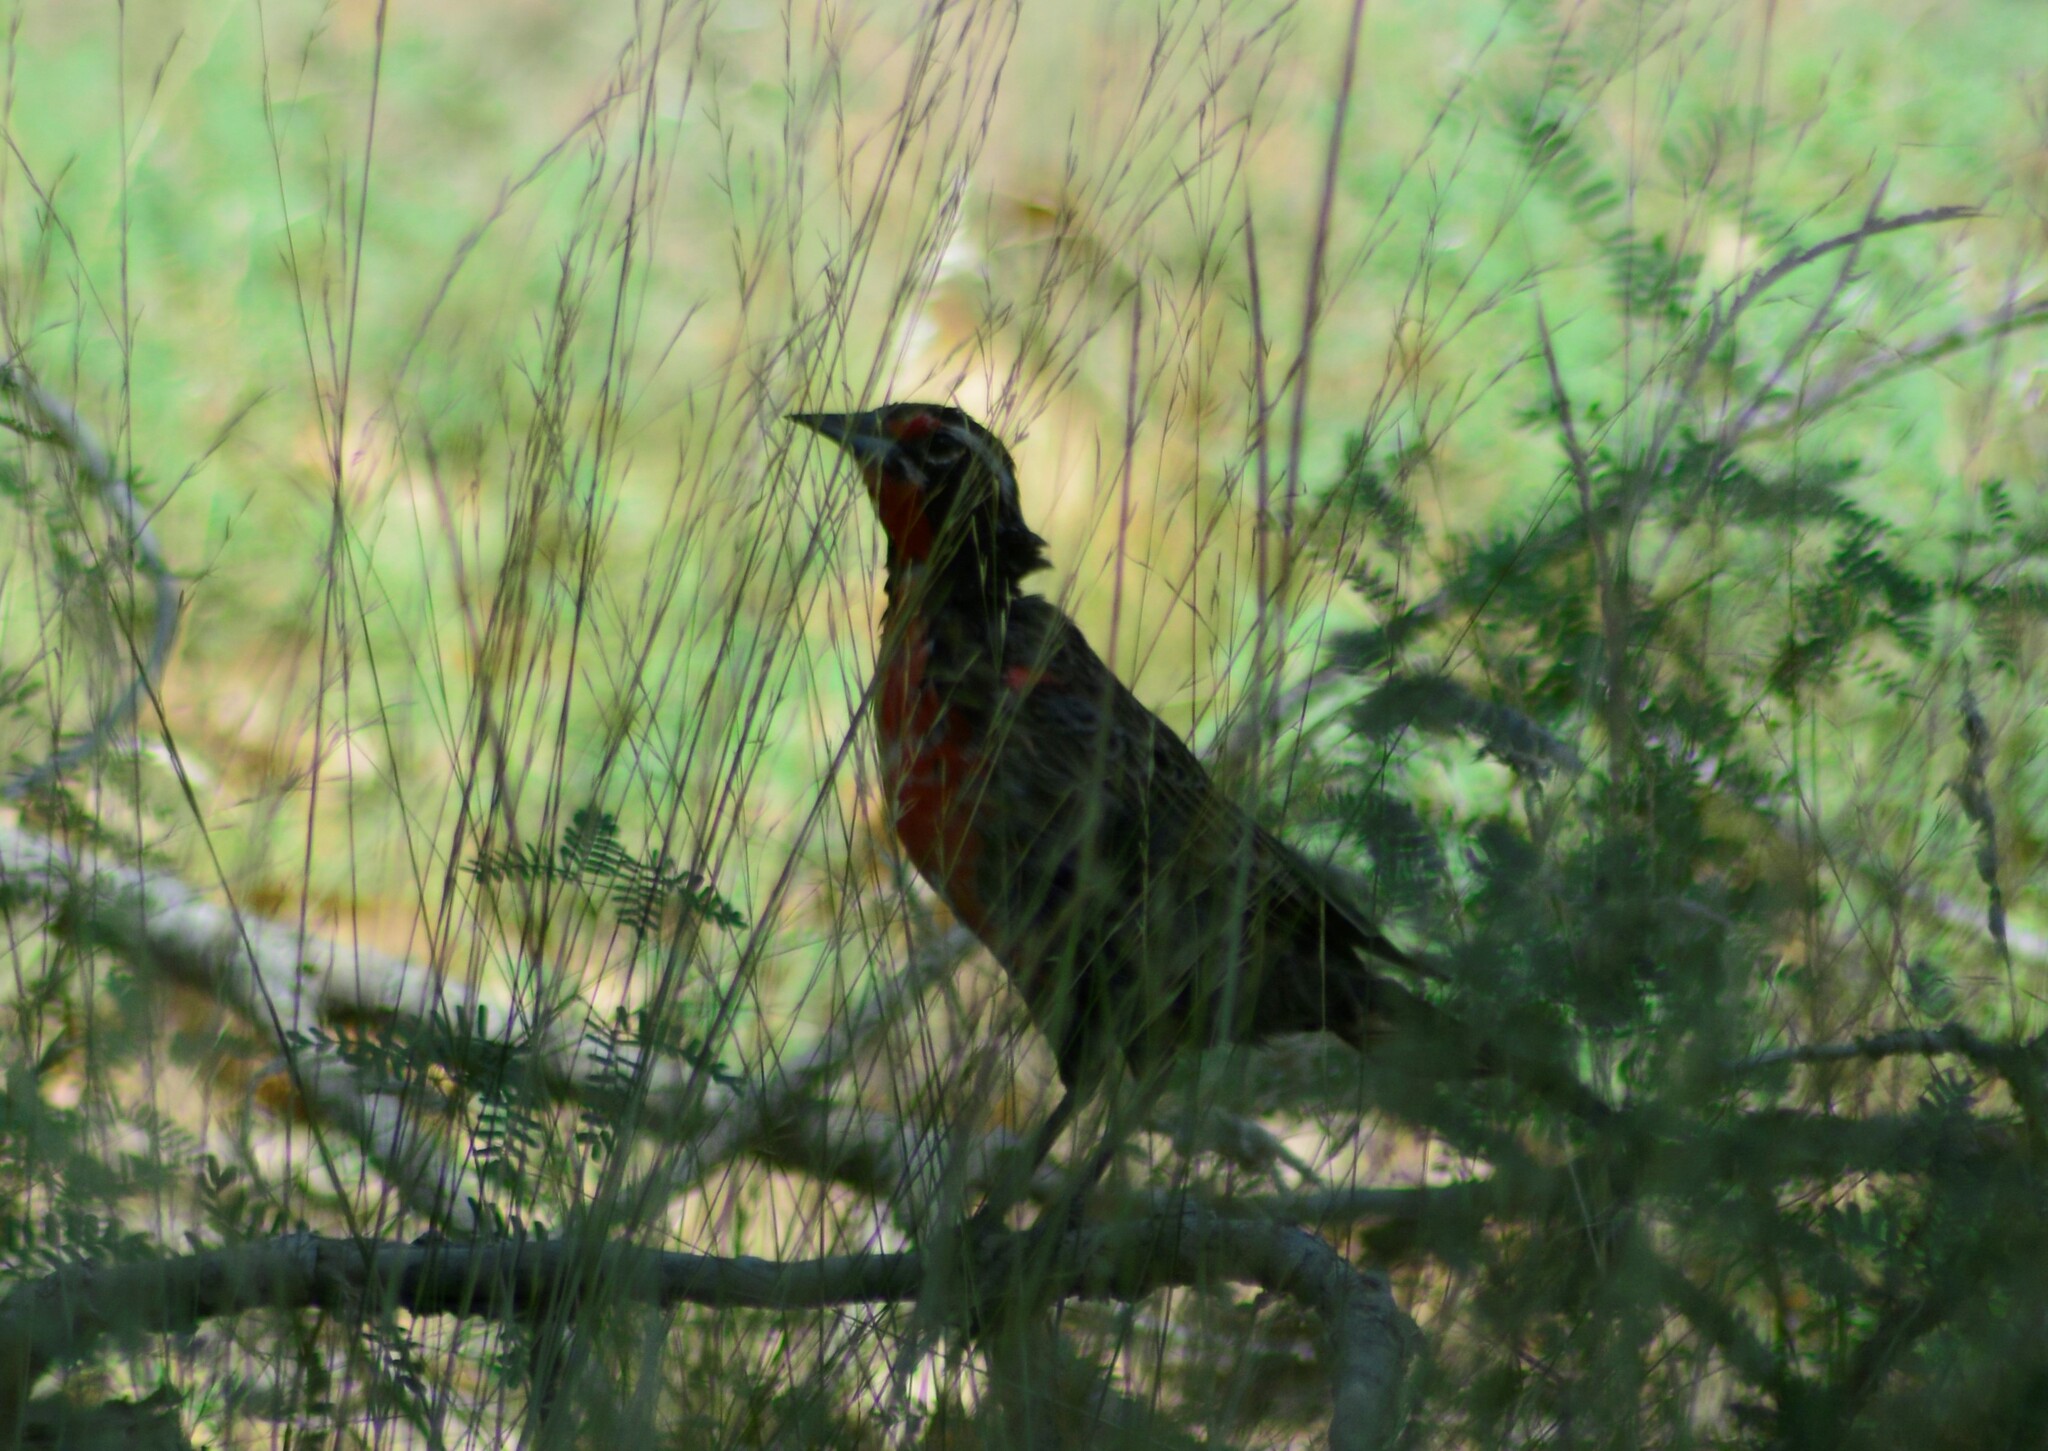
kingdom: Animalia
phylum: Chordata
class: Aves
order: Passeriformes
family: Icteridae
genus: Sturnella
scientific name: Sturnella loyca
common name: Long-tailed meadowlark
